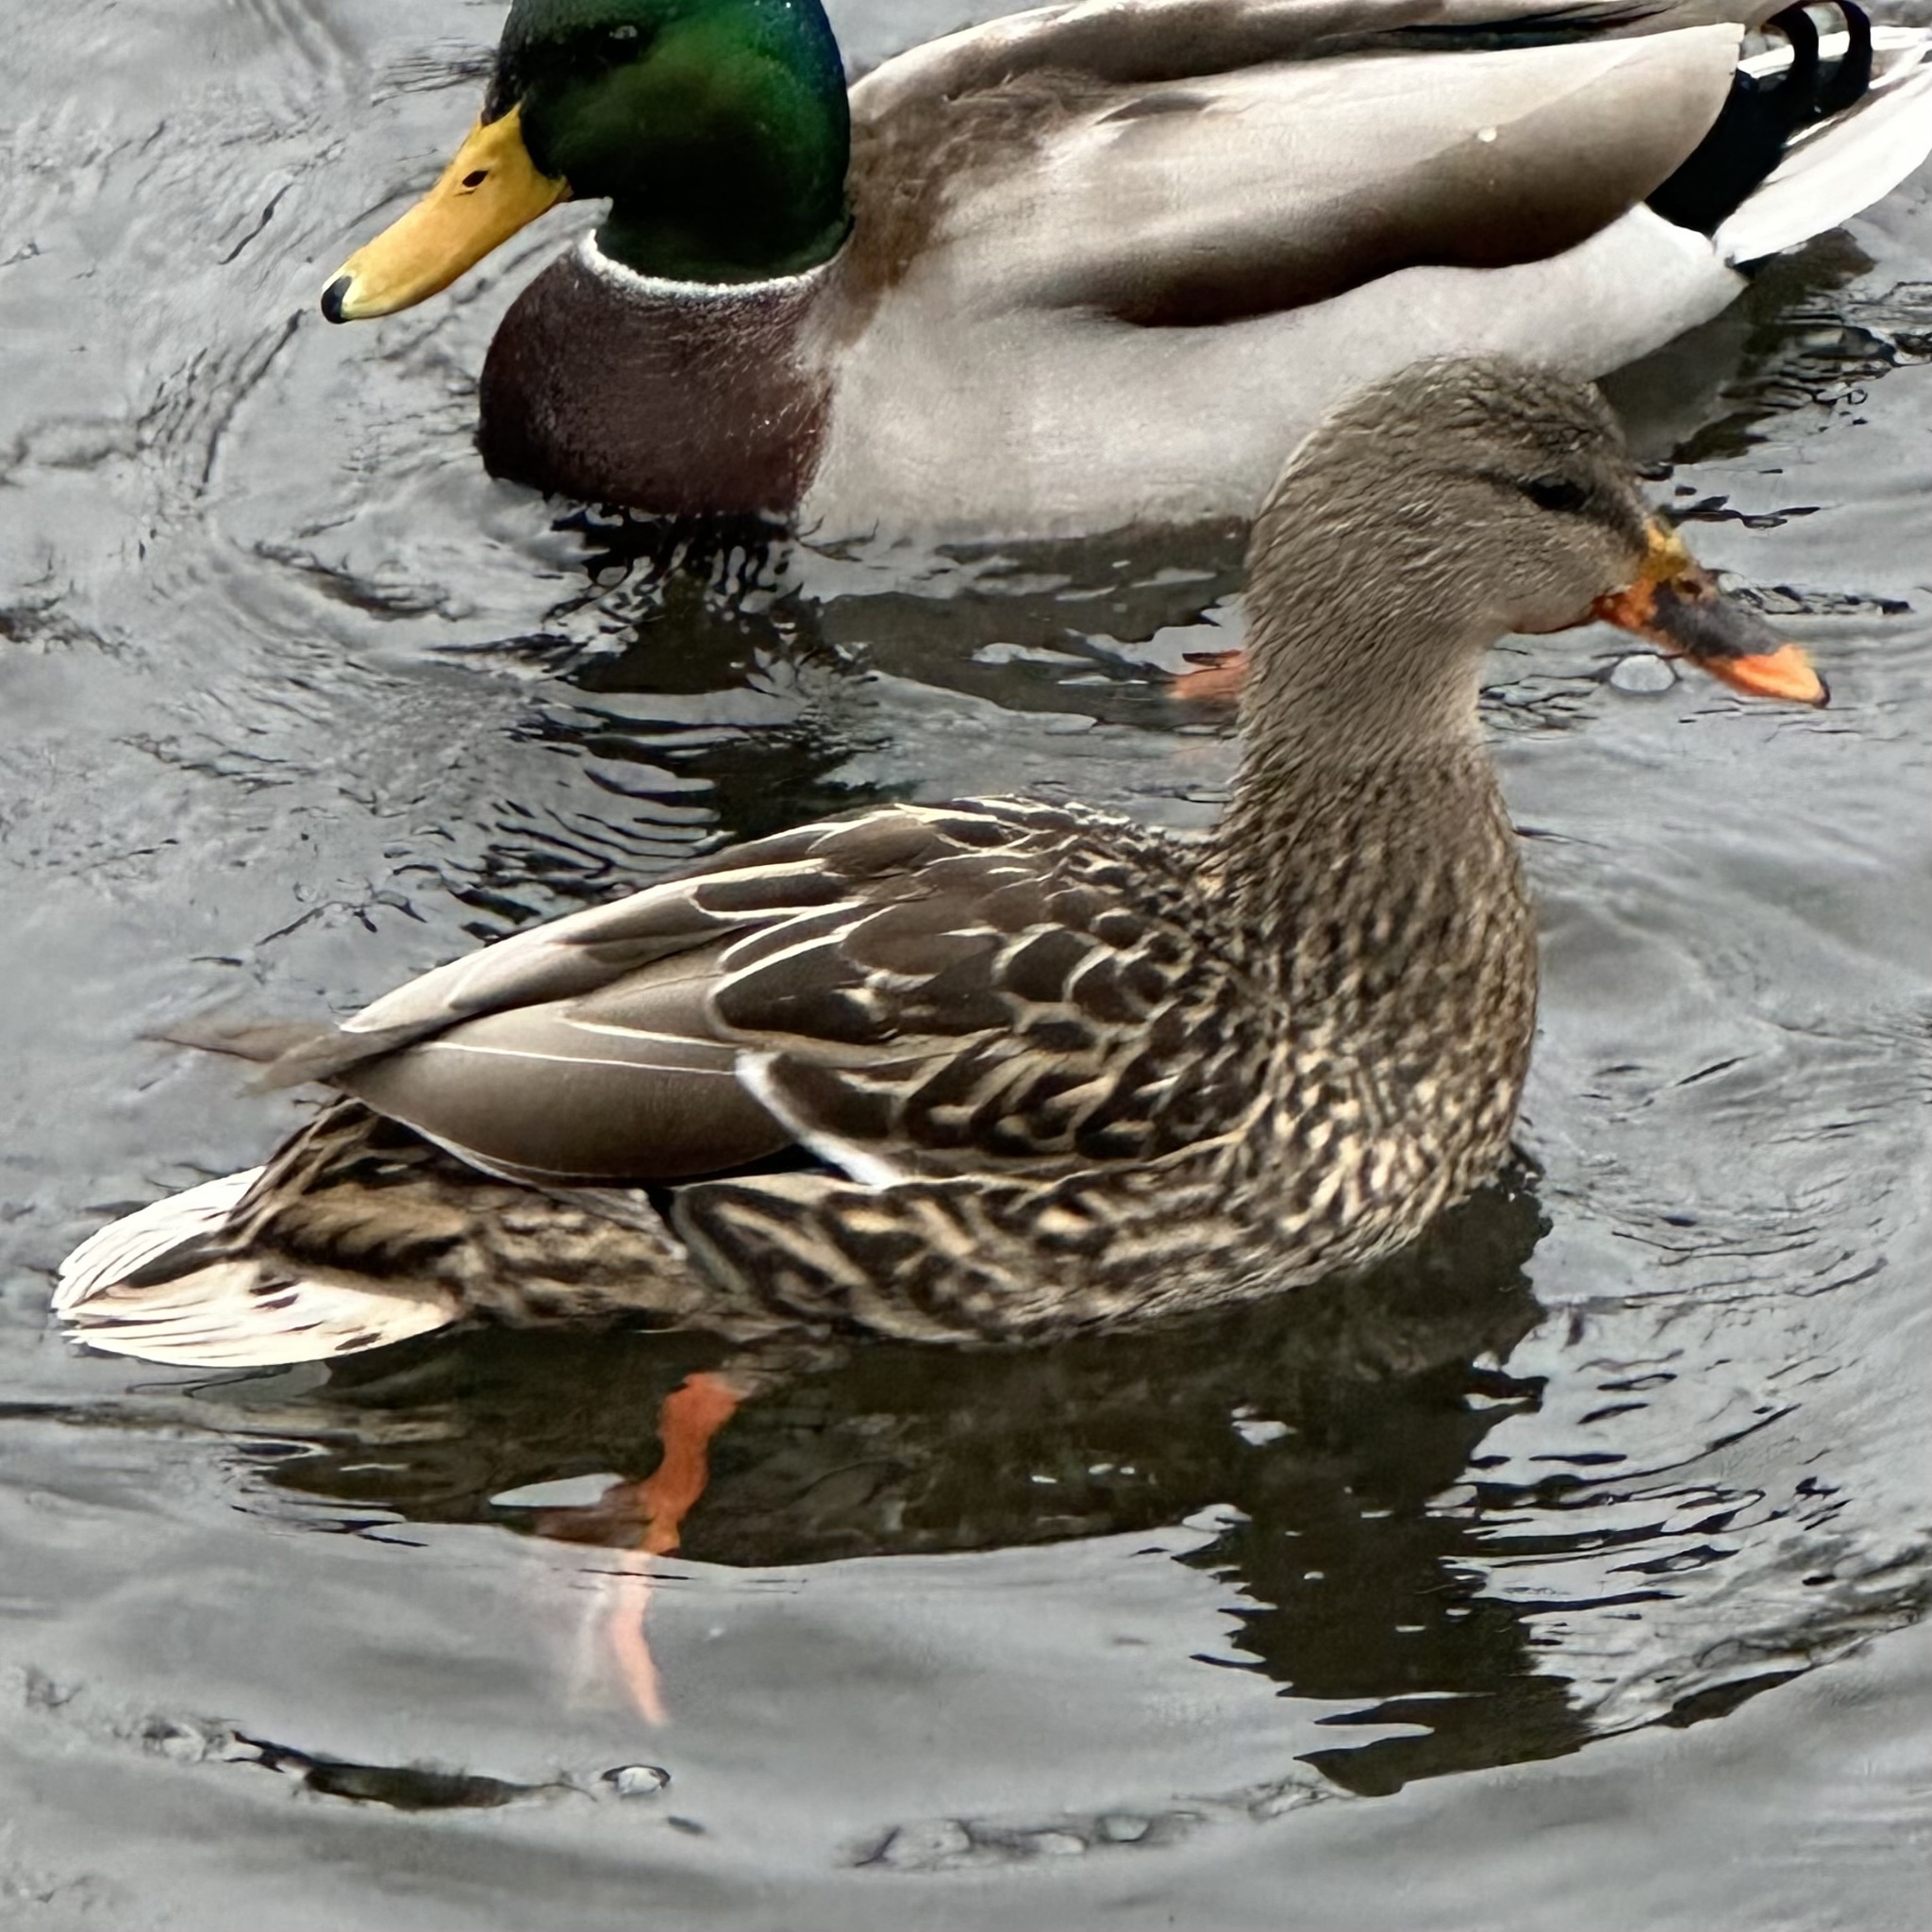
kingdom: Animalia
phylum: Chordata
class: Aves
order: Anseriformes
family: Anatidae
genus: Anas
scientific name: Anas platyrhynchos
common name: Mallard
